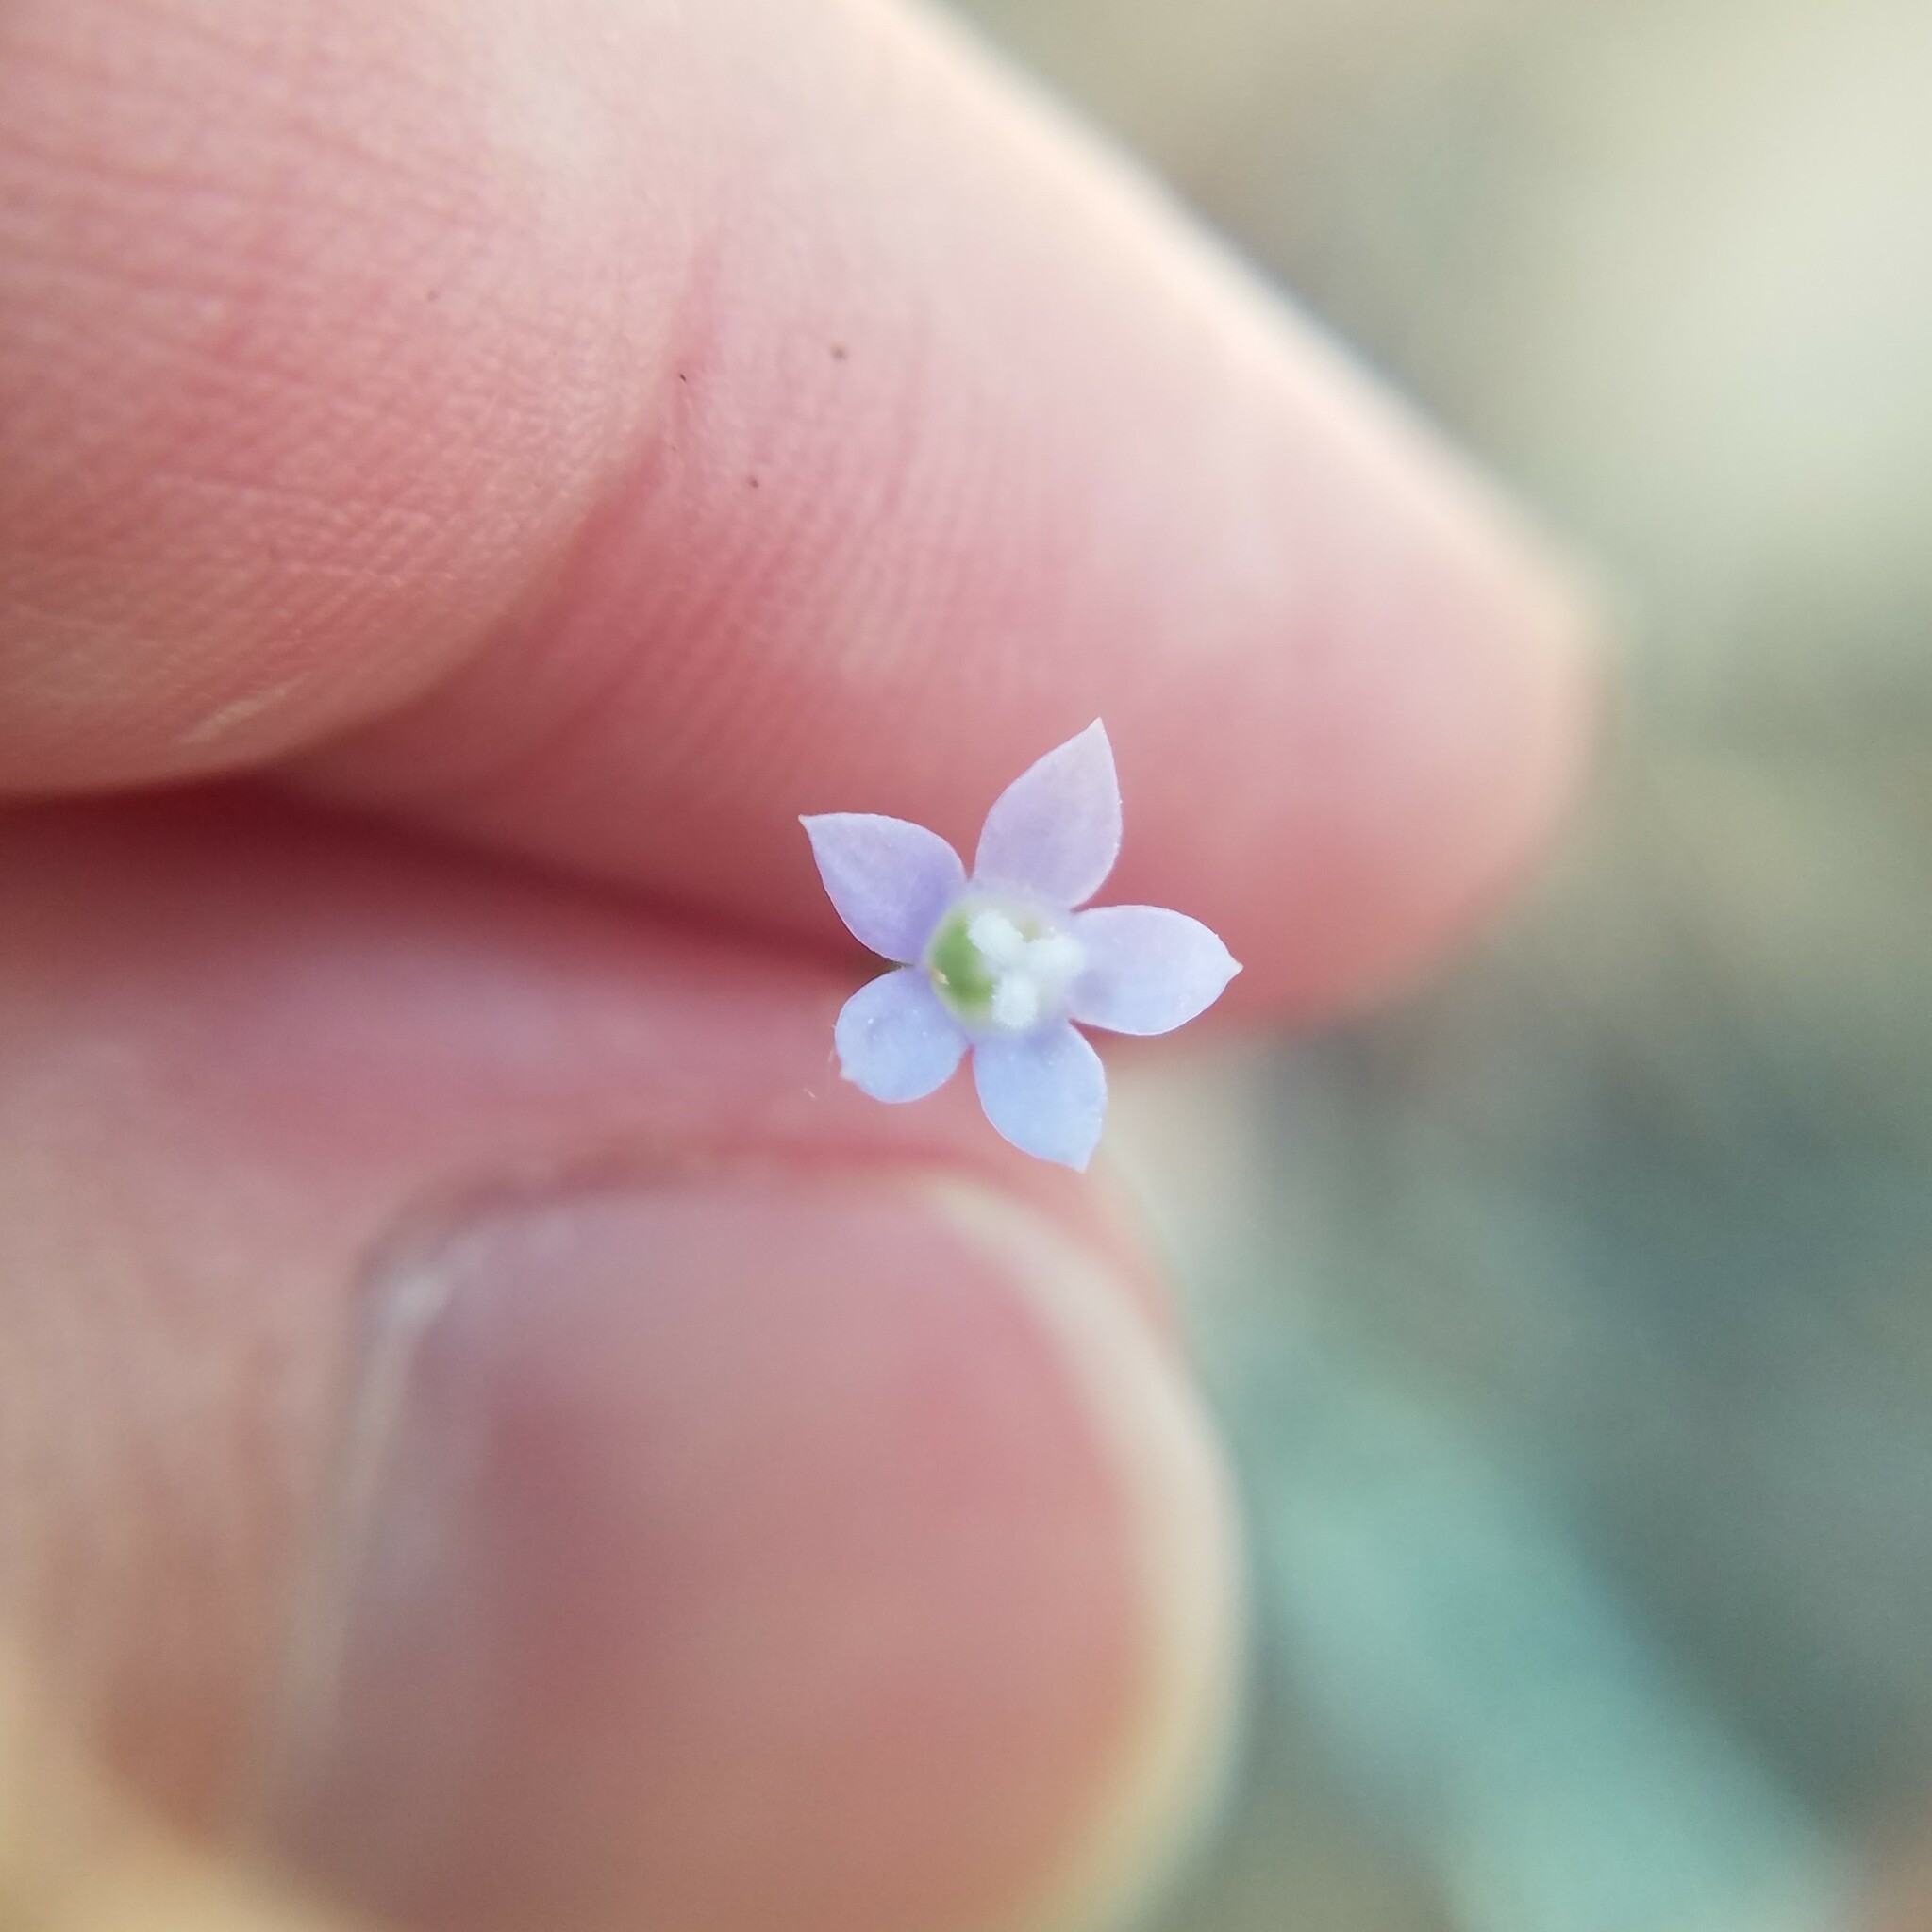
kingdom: Plantae
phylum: Tracheophyta
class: Magnoliopsida
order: Asterales
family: Campanulaceae
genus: Wahlenbergia
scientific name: Wahlenbergia marginata
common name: Southern rockbell
